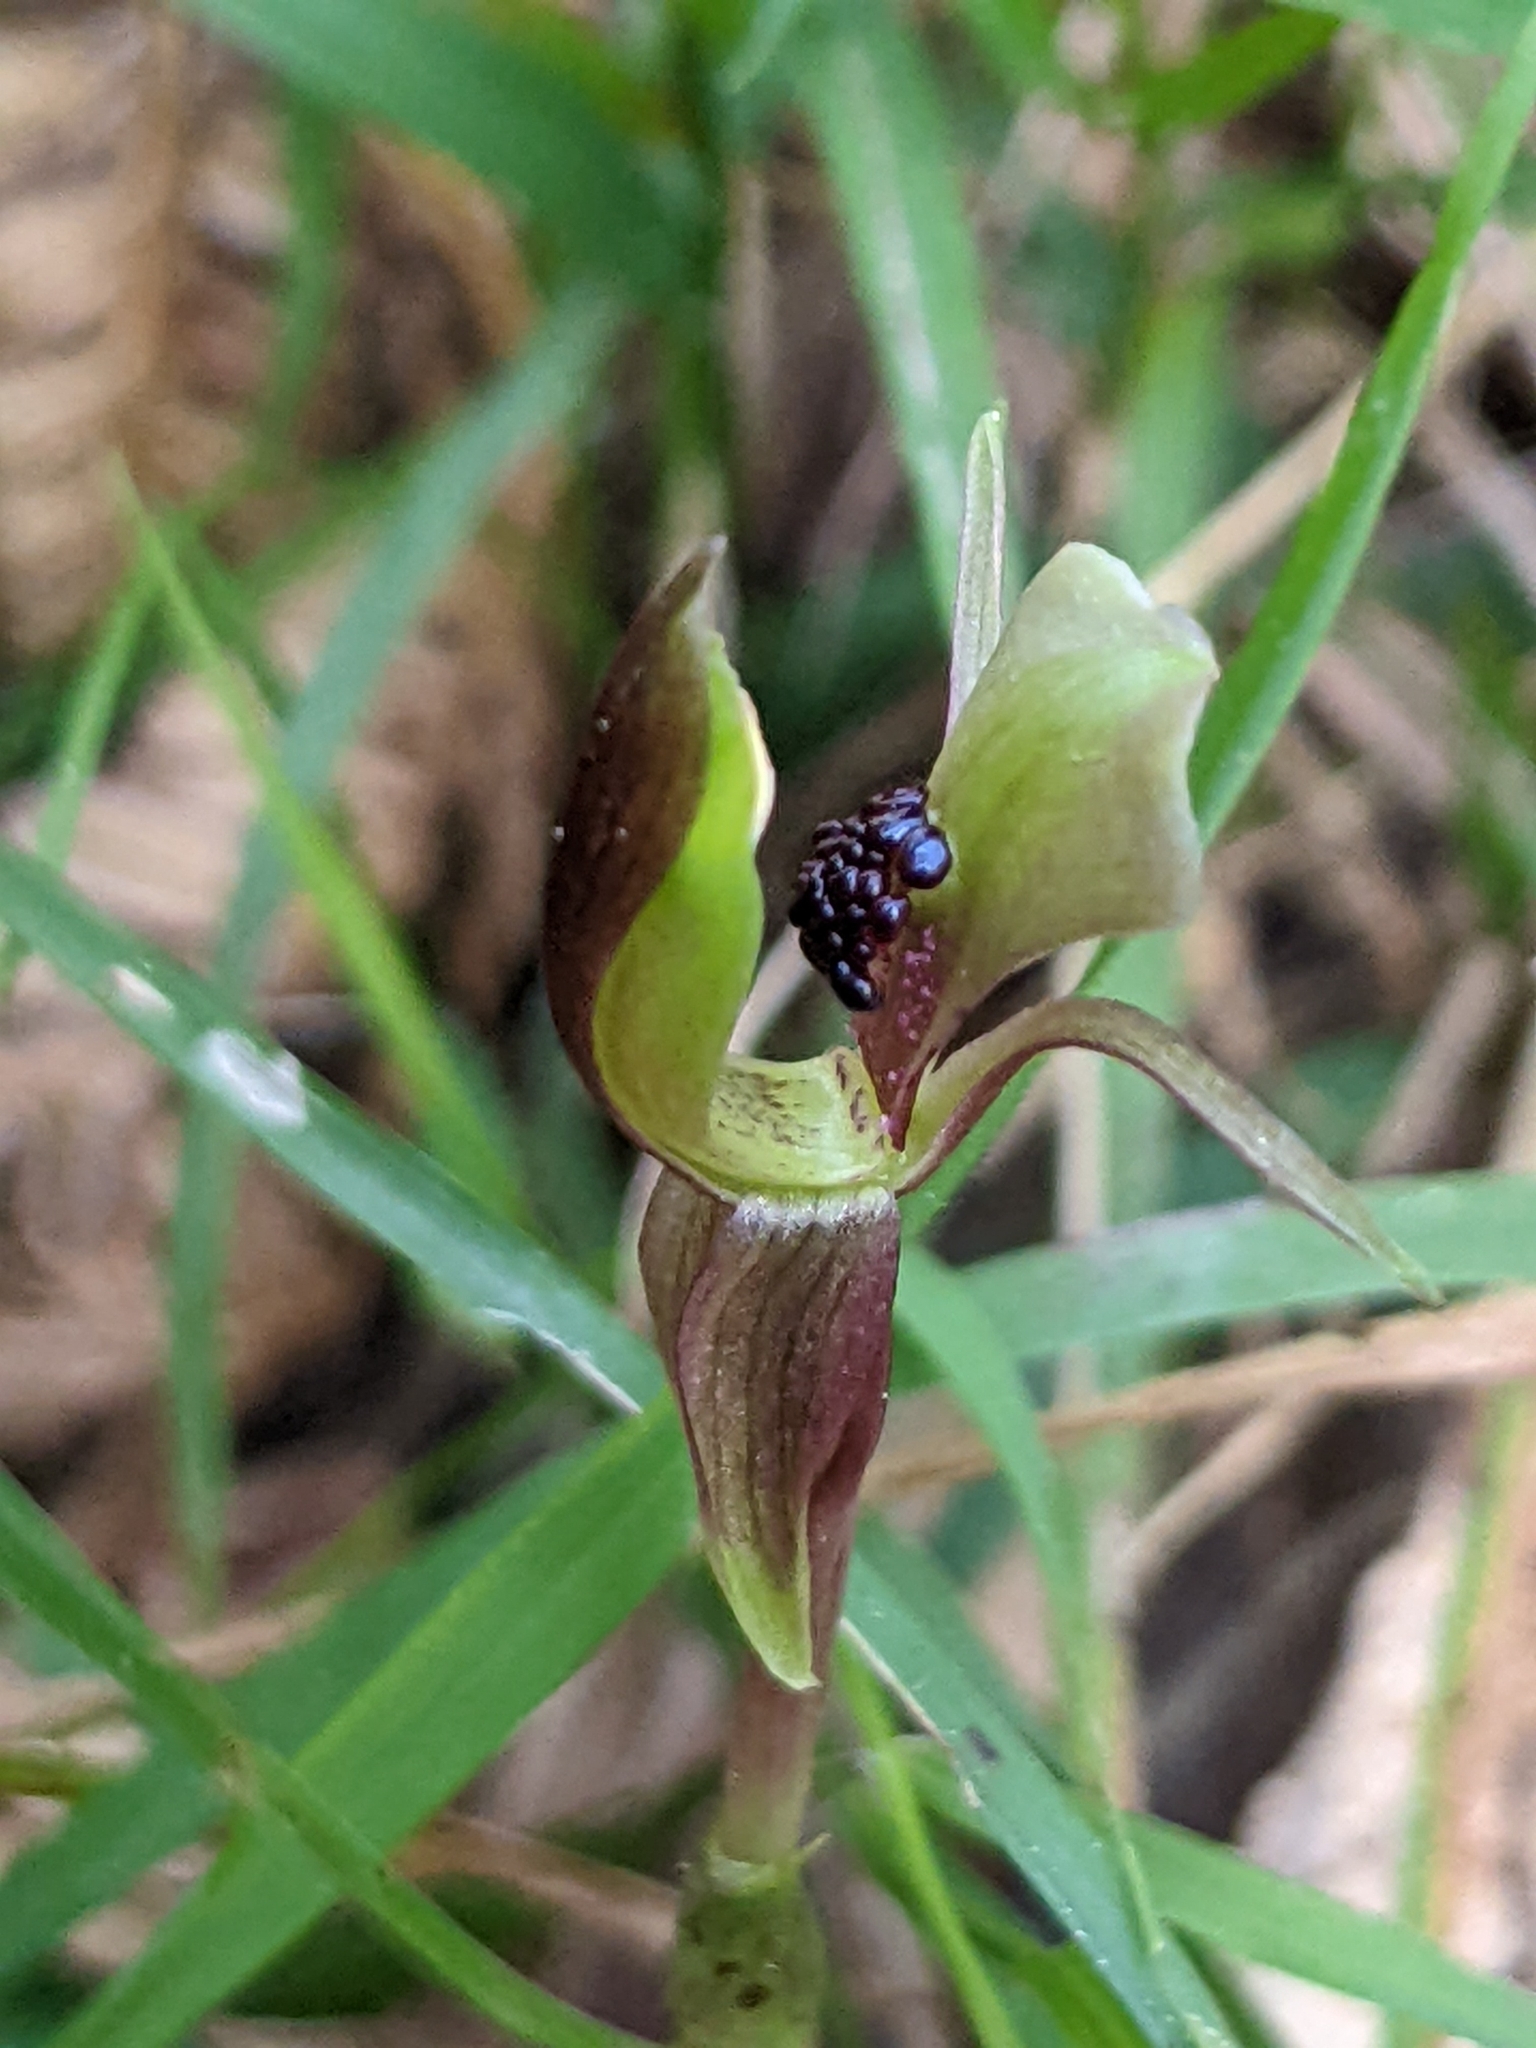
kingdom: Plantae
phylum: Tracheophyta
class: Liliopsida
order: Asparagales
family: Orchidaceae
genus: Chiloglottis
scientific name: Chiloglottis trapeziformis
